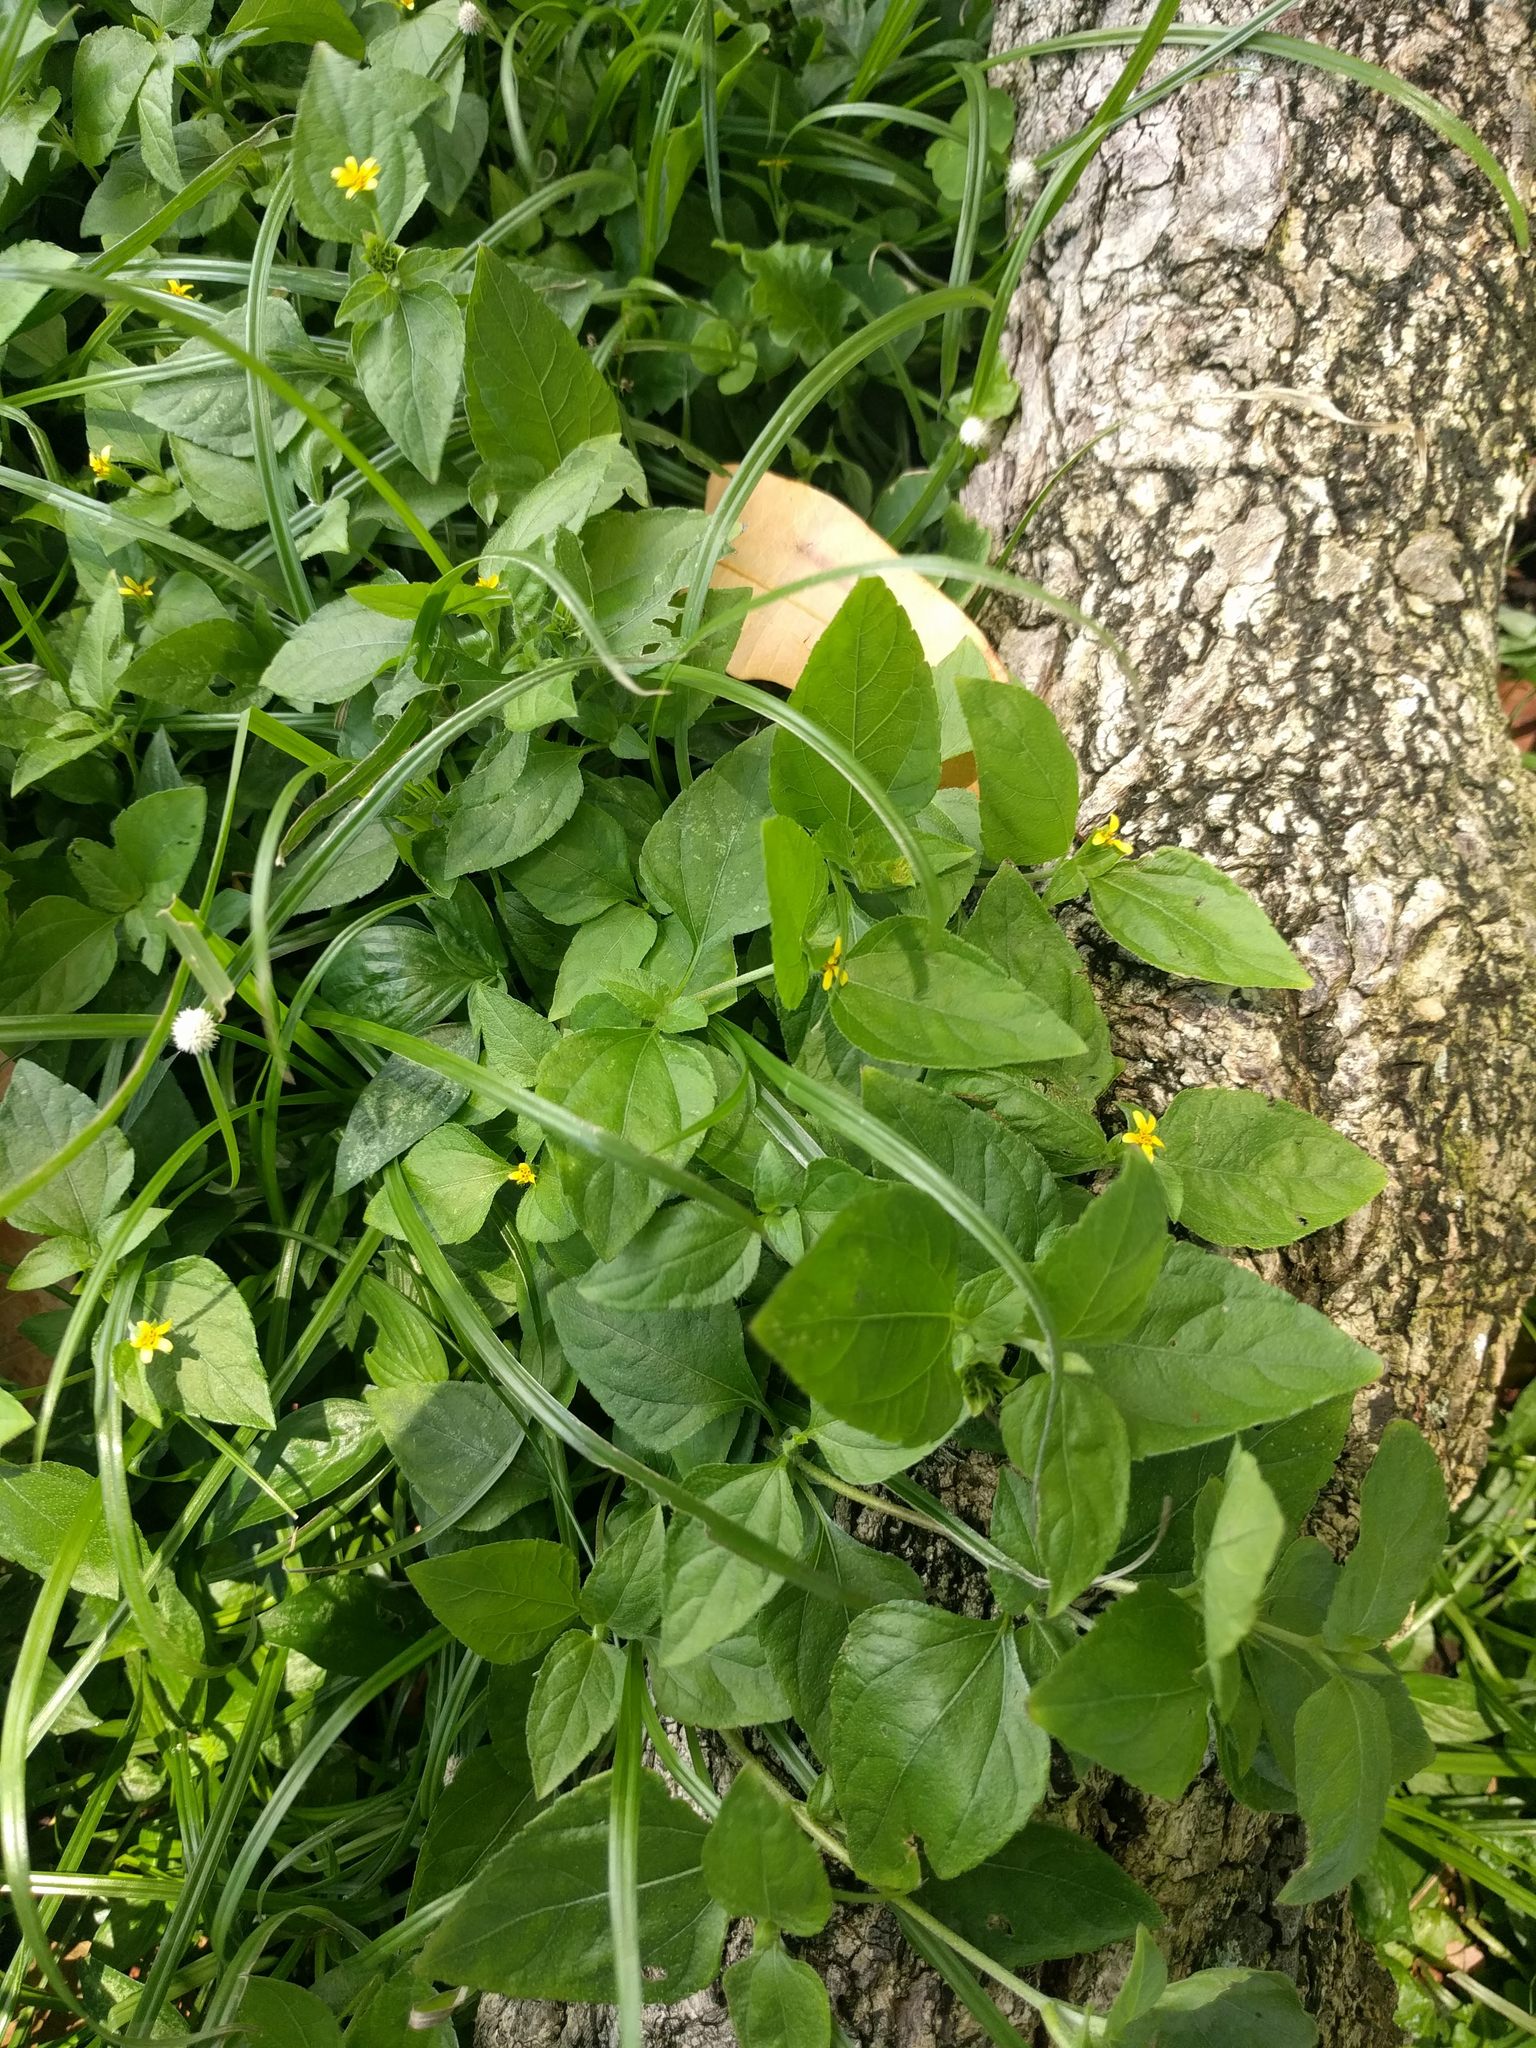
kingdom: Plantae
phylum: Tracheophyta
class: Magnoliopsida
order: Asterales
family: Asteraceae
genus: Calyptocarpus
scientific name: Calyptocarpus vialis
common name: Straggler daisy
